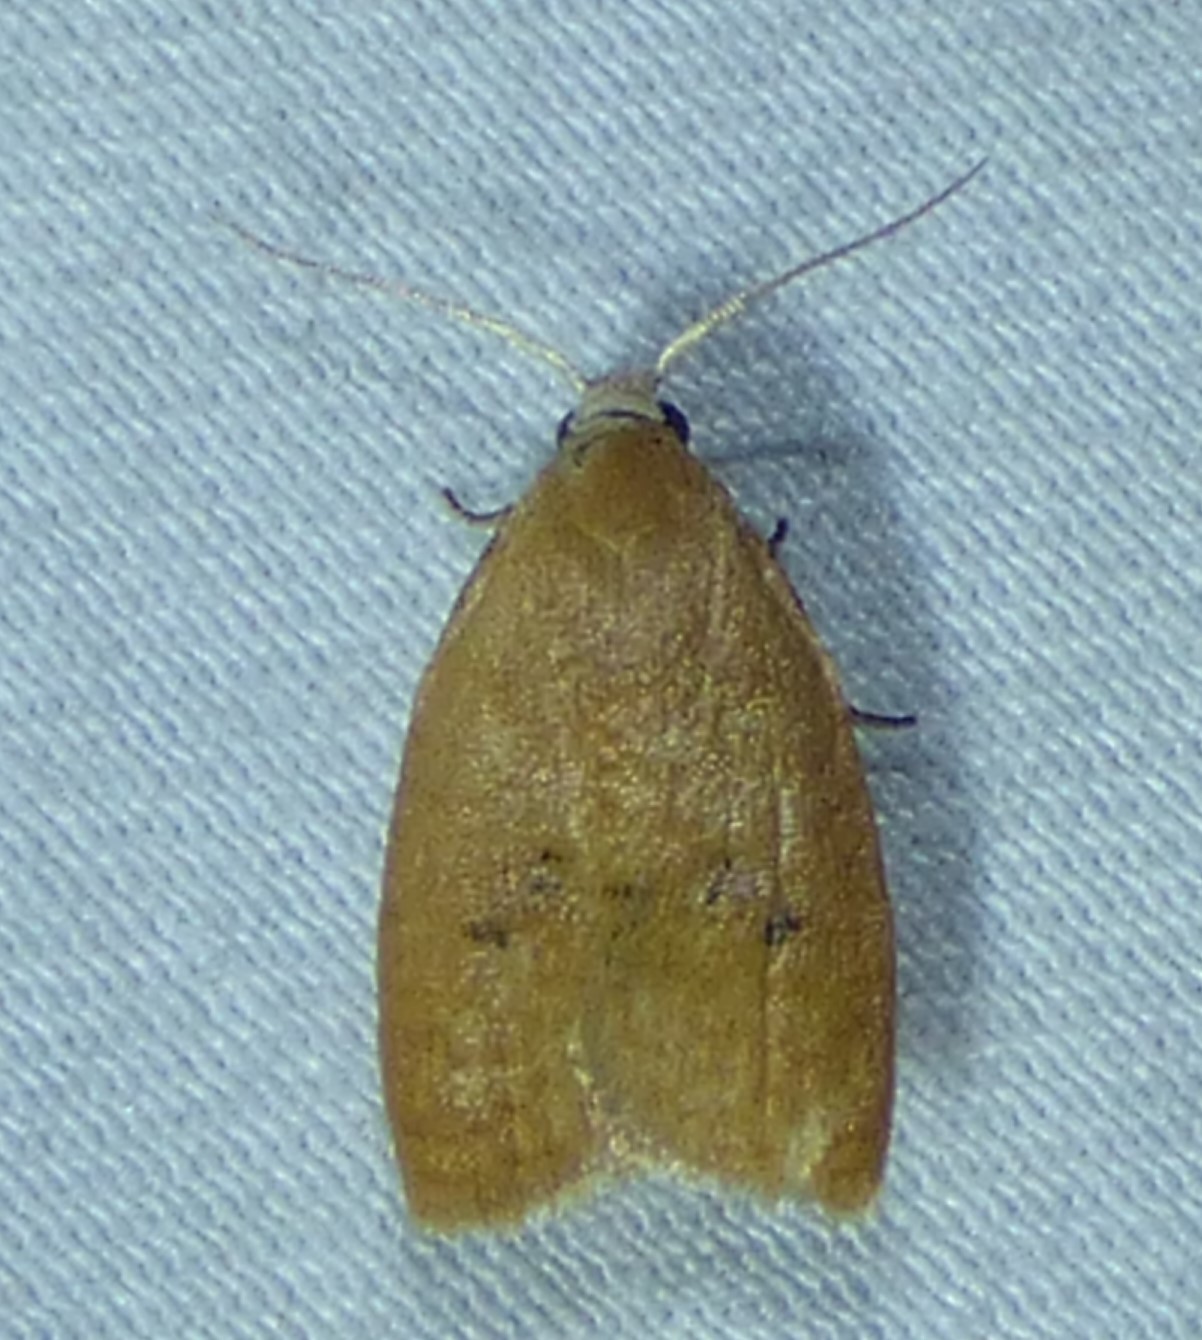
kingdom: Animalia
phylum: Arthropoda
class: Insecta
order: Lepidoptera
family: Tortricidae
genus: Sparganothoides
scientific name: Sparganothoides lentiginosana
